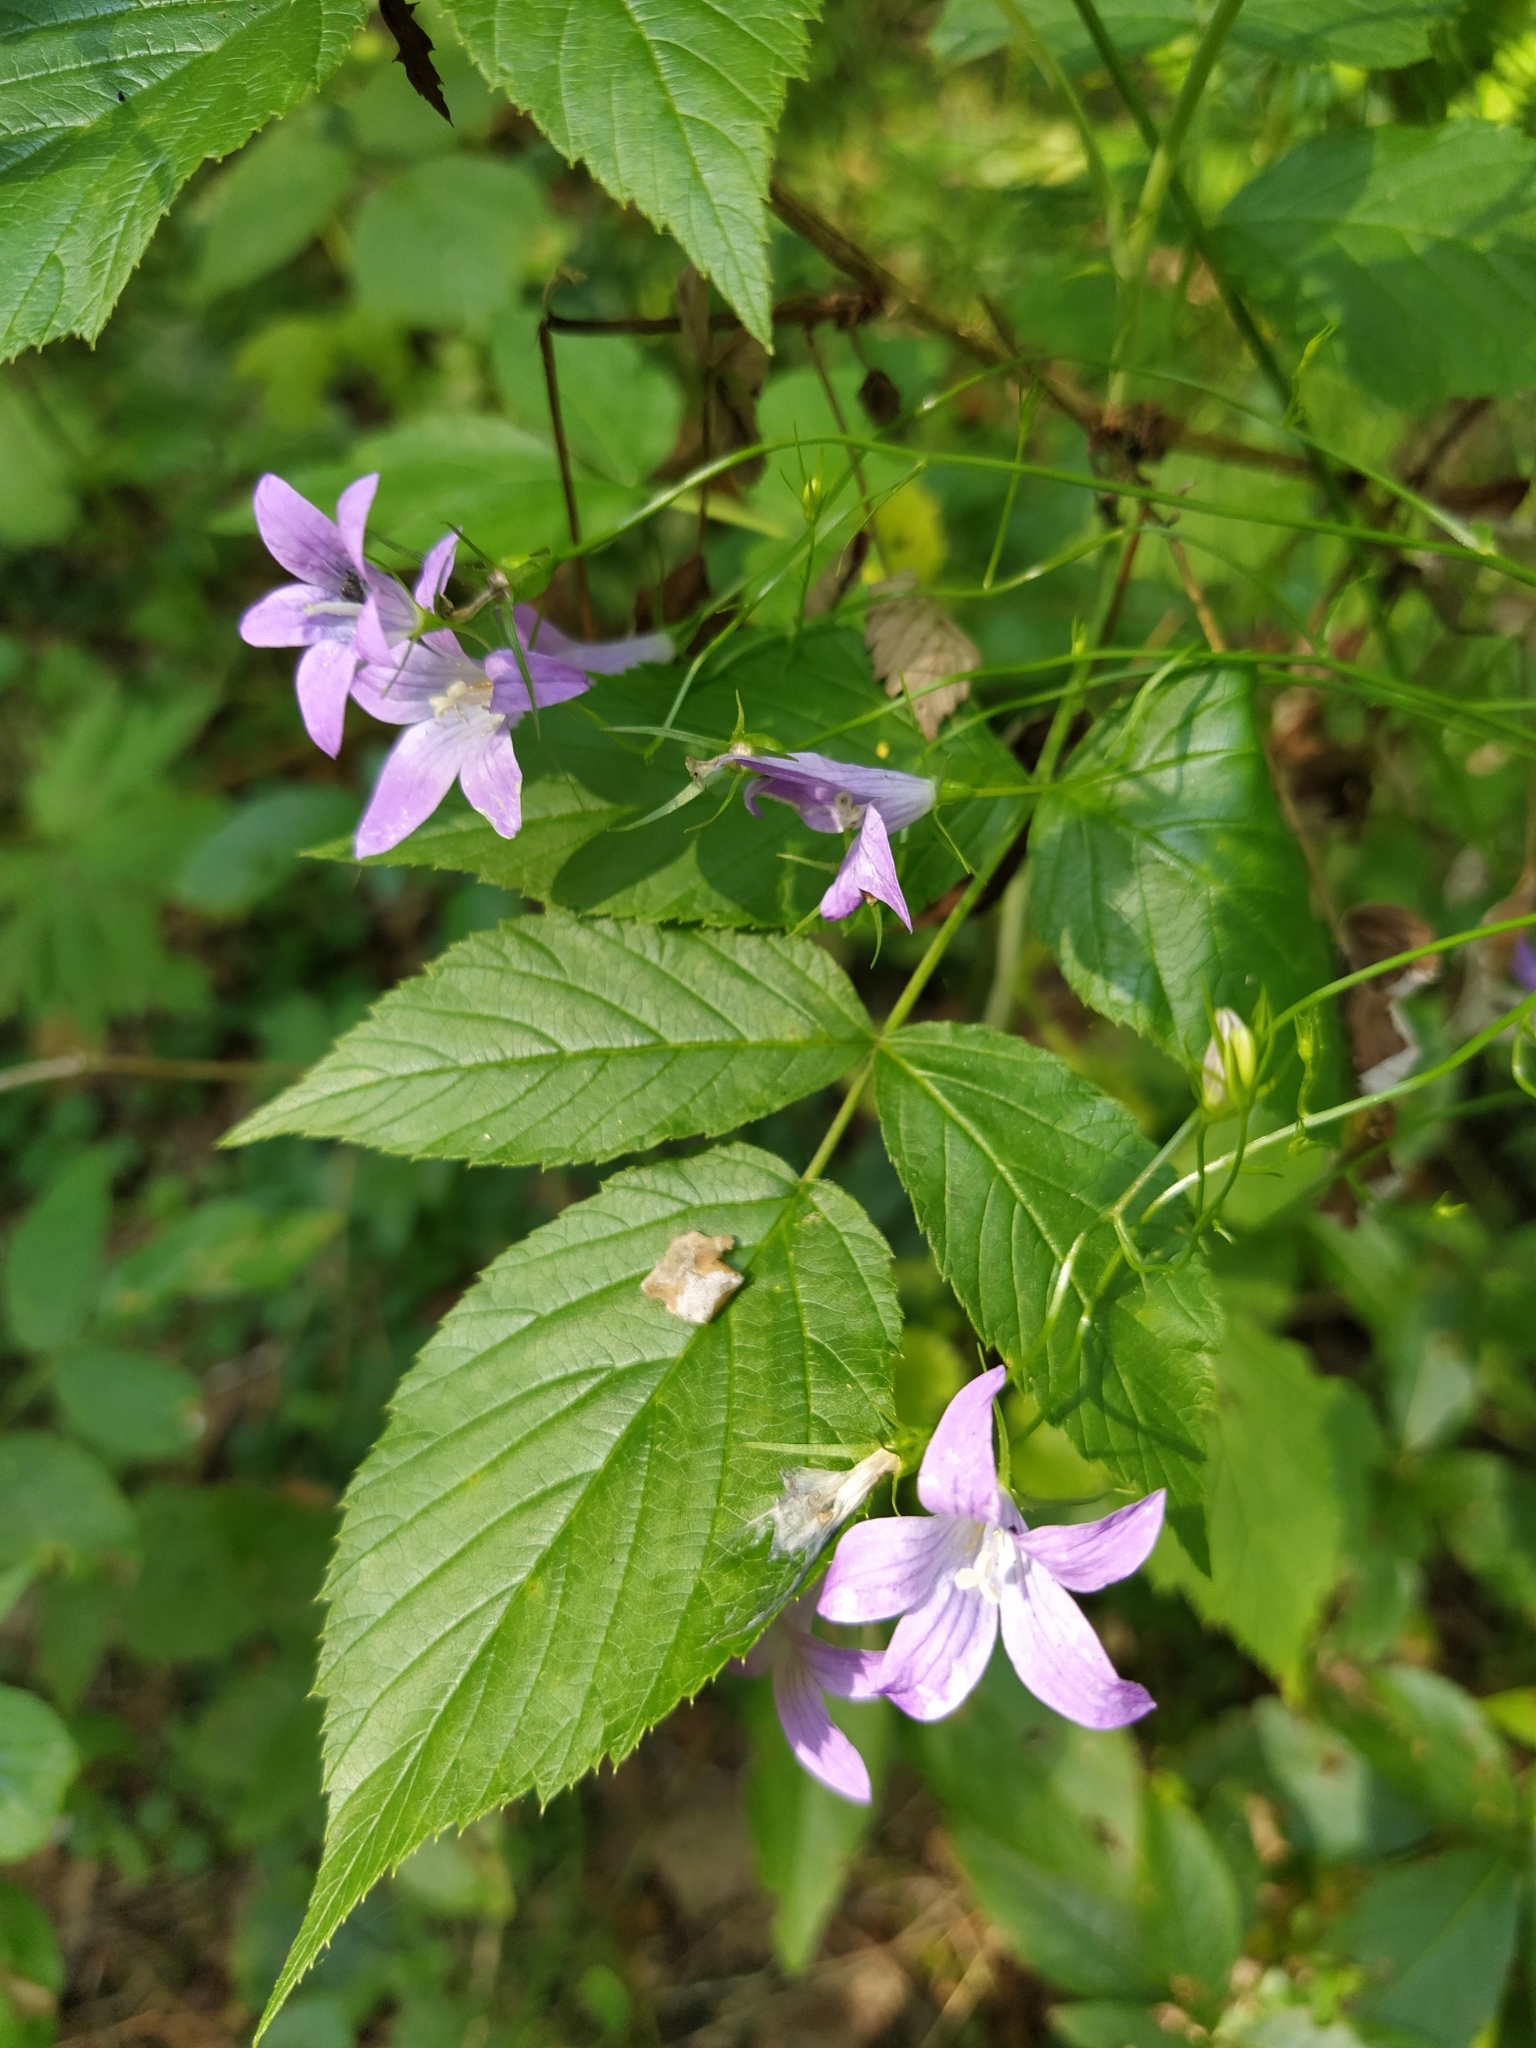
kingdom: Plantae
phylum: Tracheophyta
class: Magnoliopsida
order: Asterales
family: Campanulaceae
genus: Campanula
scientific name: Campanula patula
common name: Spreading bellflower
